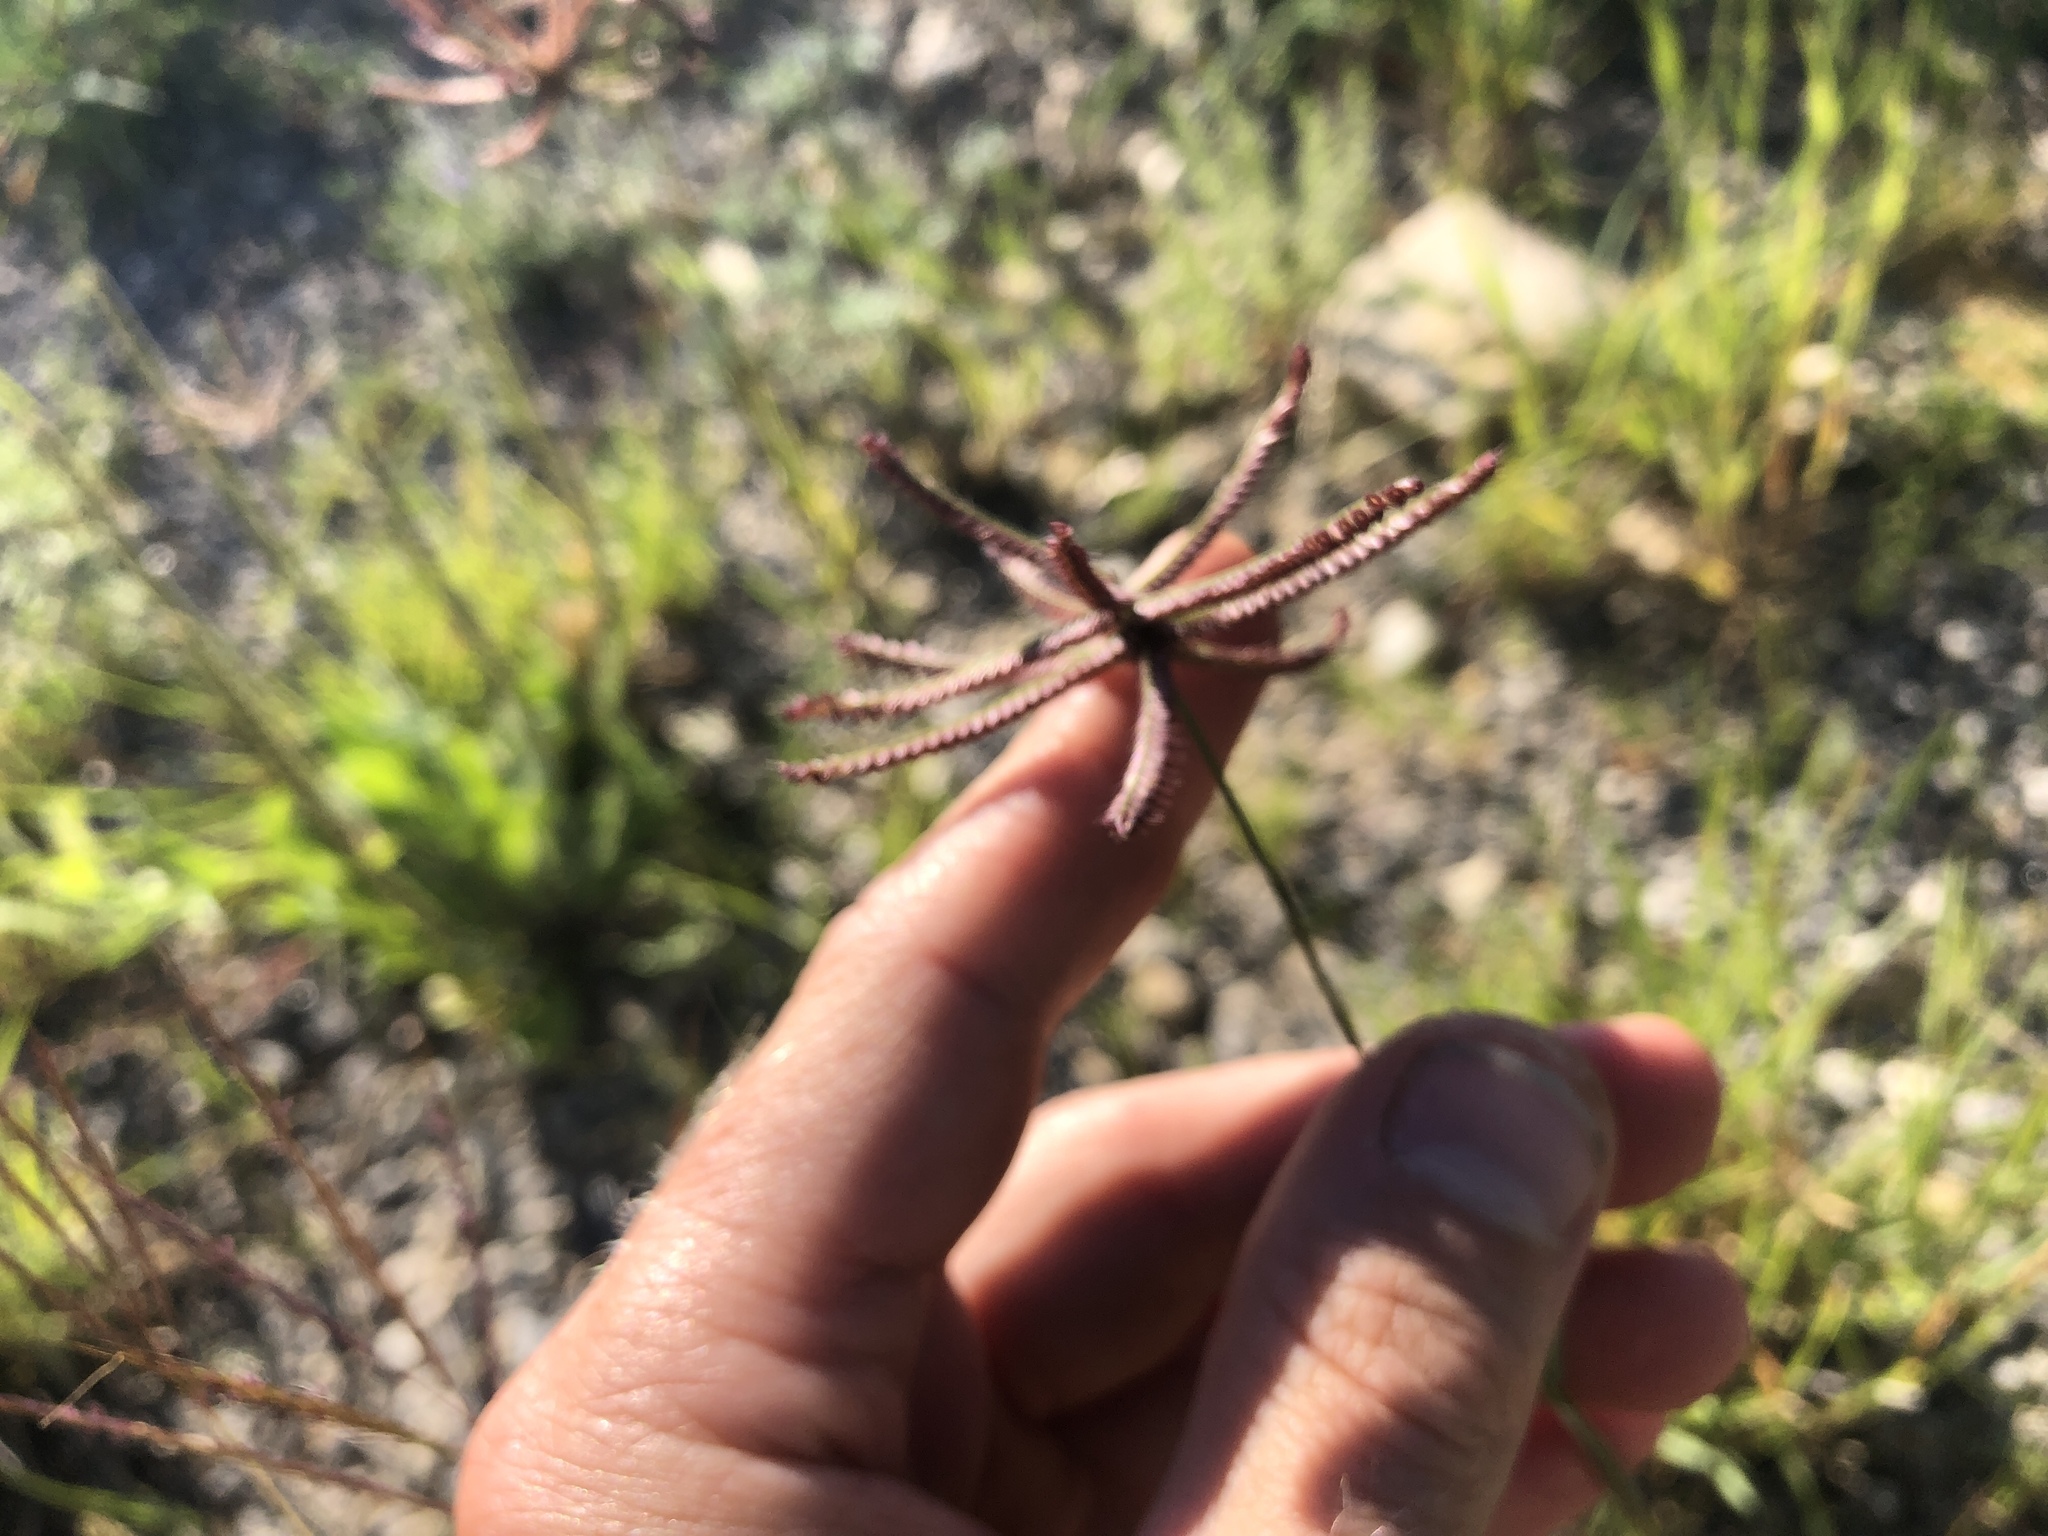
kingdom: Plantae
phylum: Tracheophyta
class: Liliopsida
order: Poales
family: Poaceae
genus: Chloris
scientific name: Chloris cucullata
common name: Hooded windmill grass
